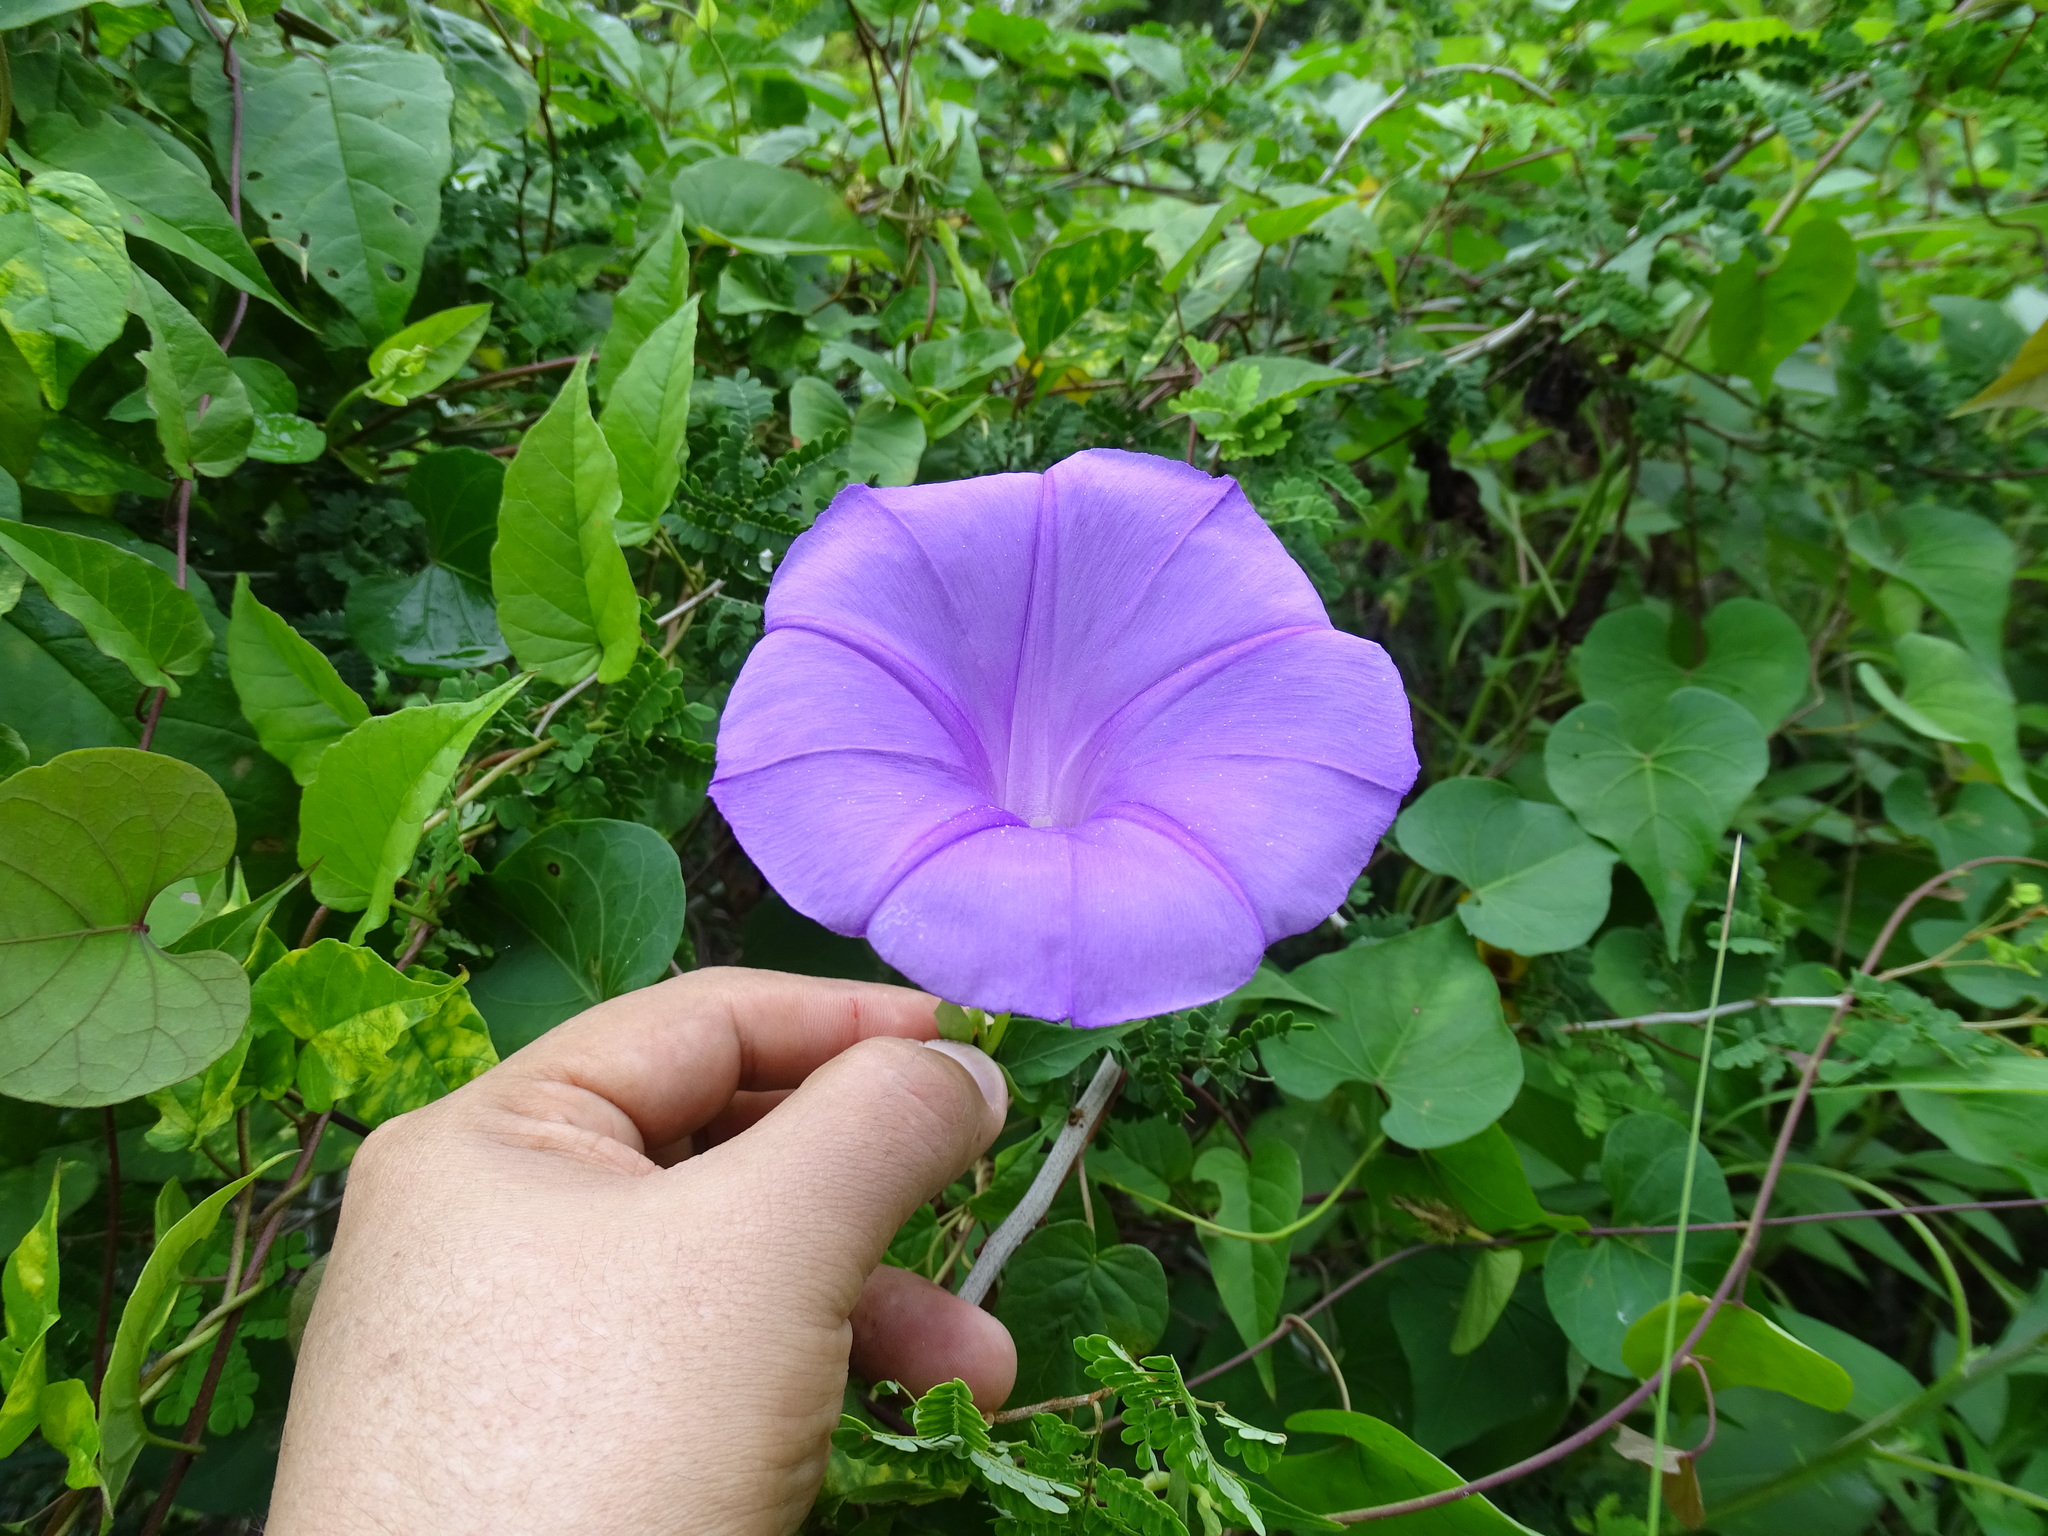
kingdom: Plantae
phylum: Tracheophyta
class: Magnoliopsida
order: Solanales
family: Convolvulaceae
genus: Ipomoea
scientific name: Ipomoea crinicalyx
